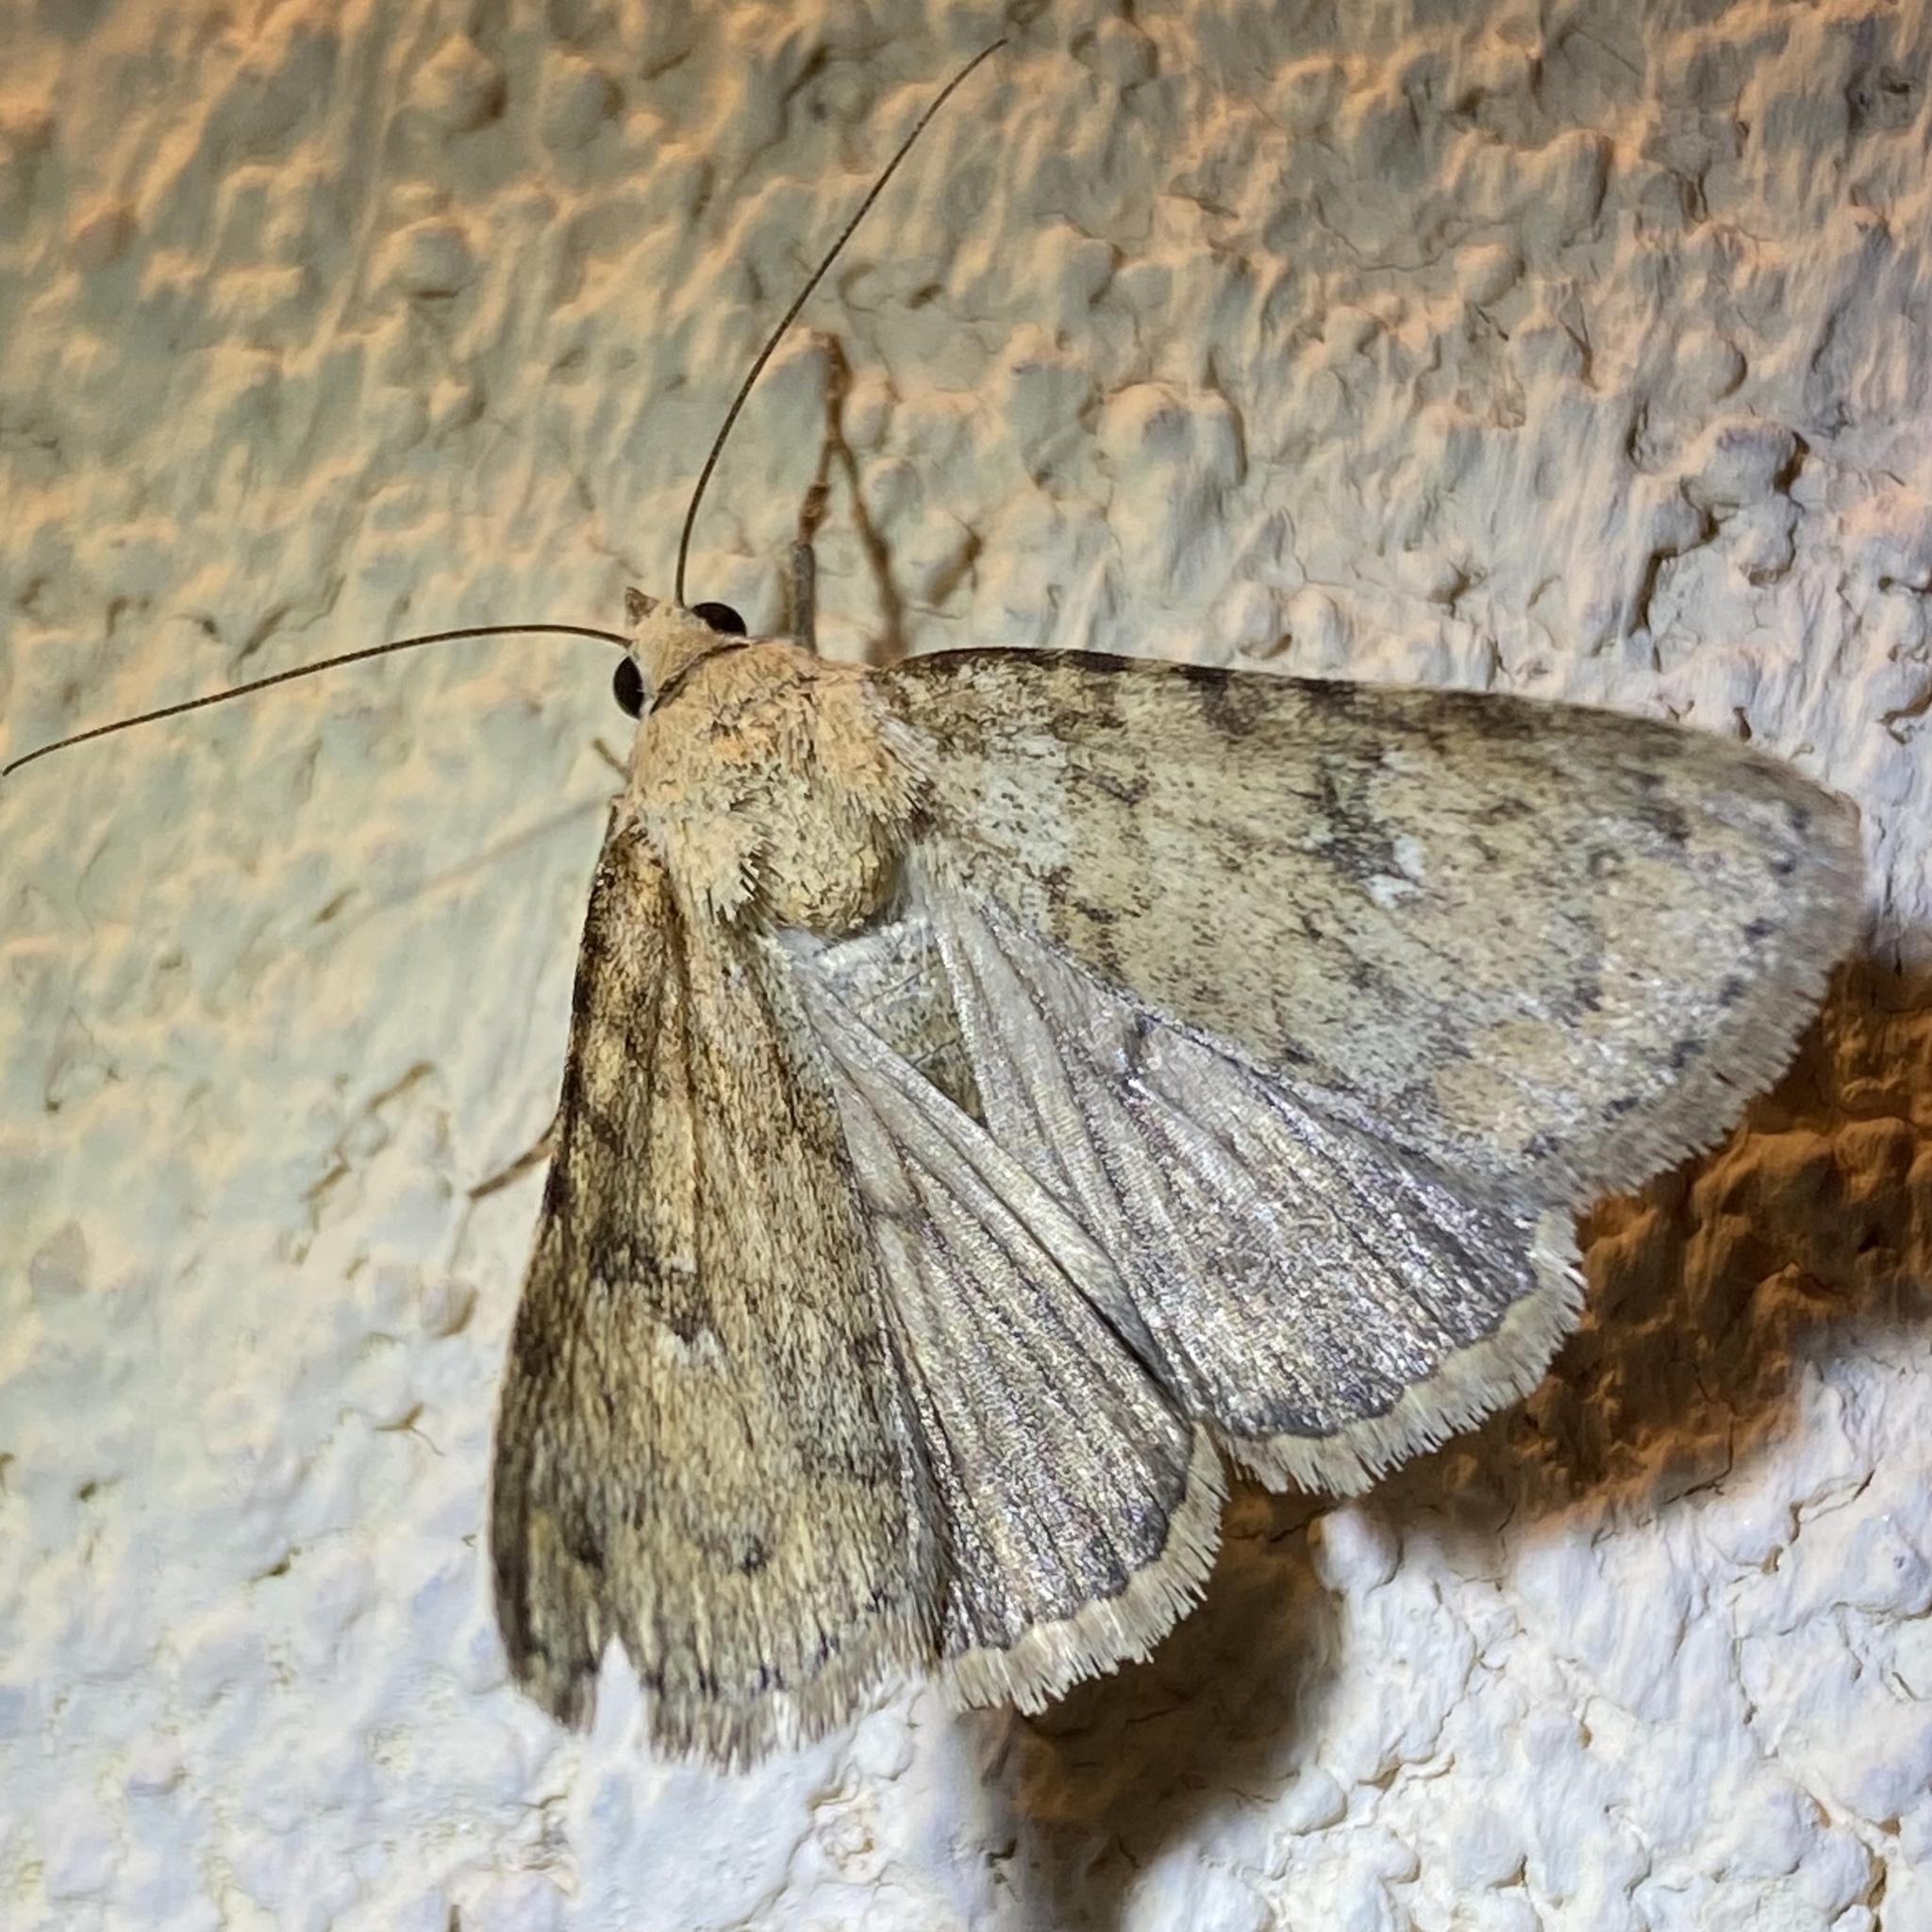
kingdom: Animalia
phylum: Arthropoda
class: Insecta
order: Lepidoptera
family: Erebidae
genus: Drasteria
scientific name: Drasteria inepta
